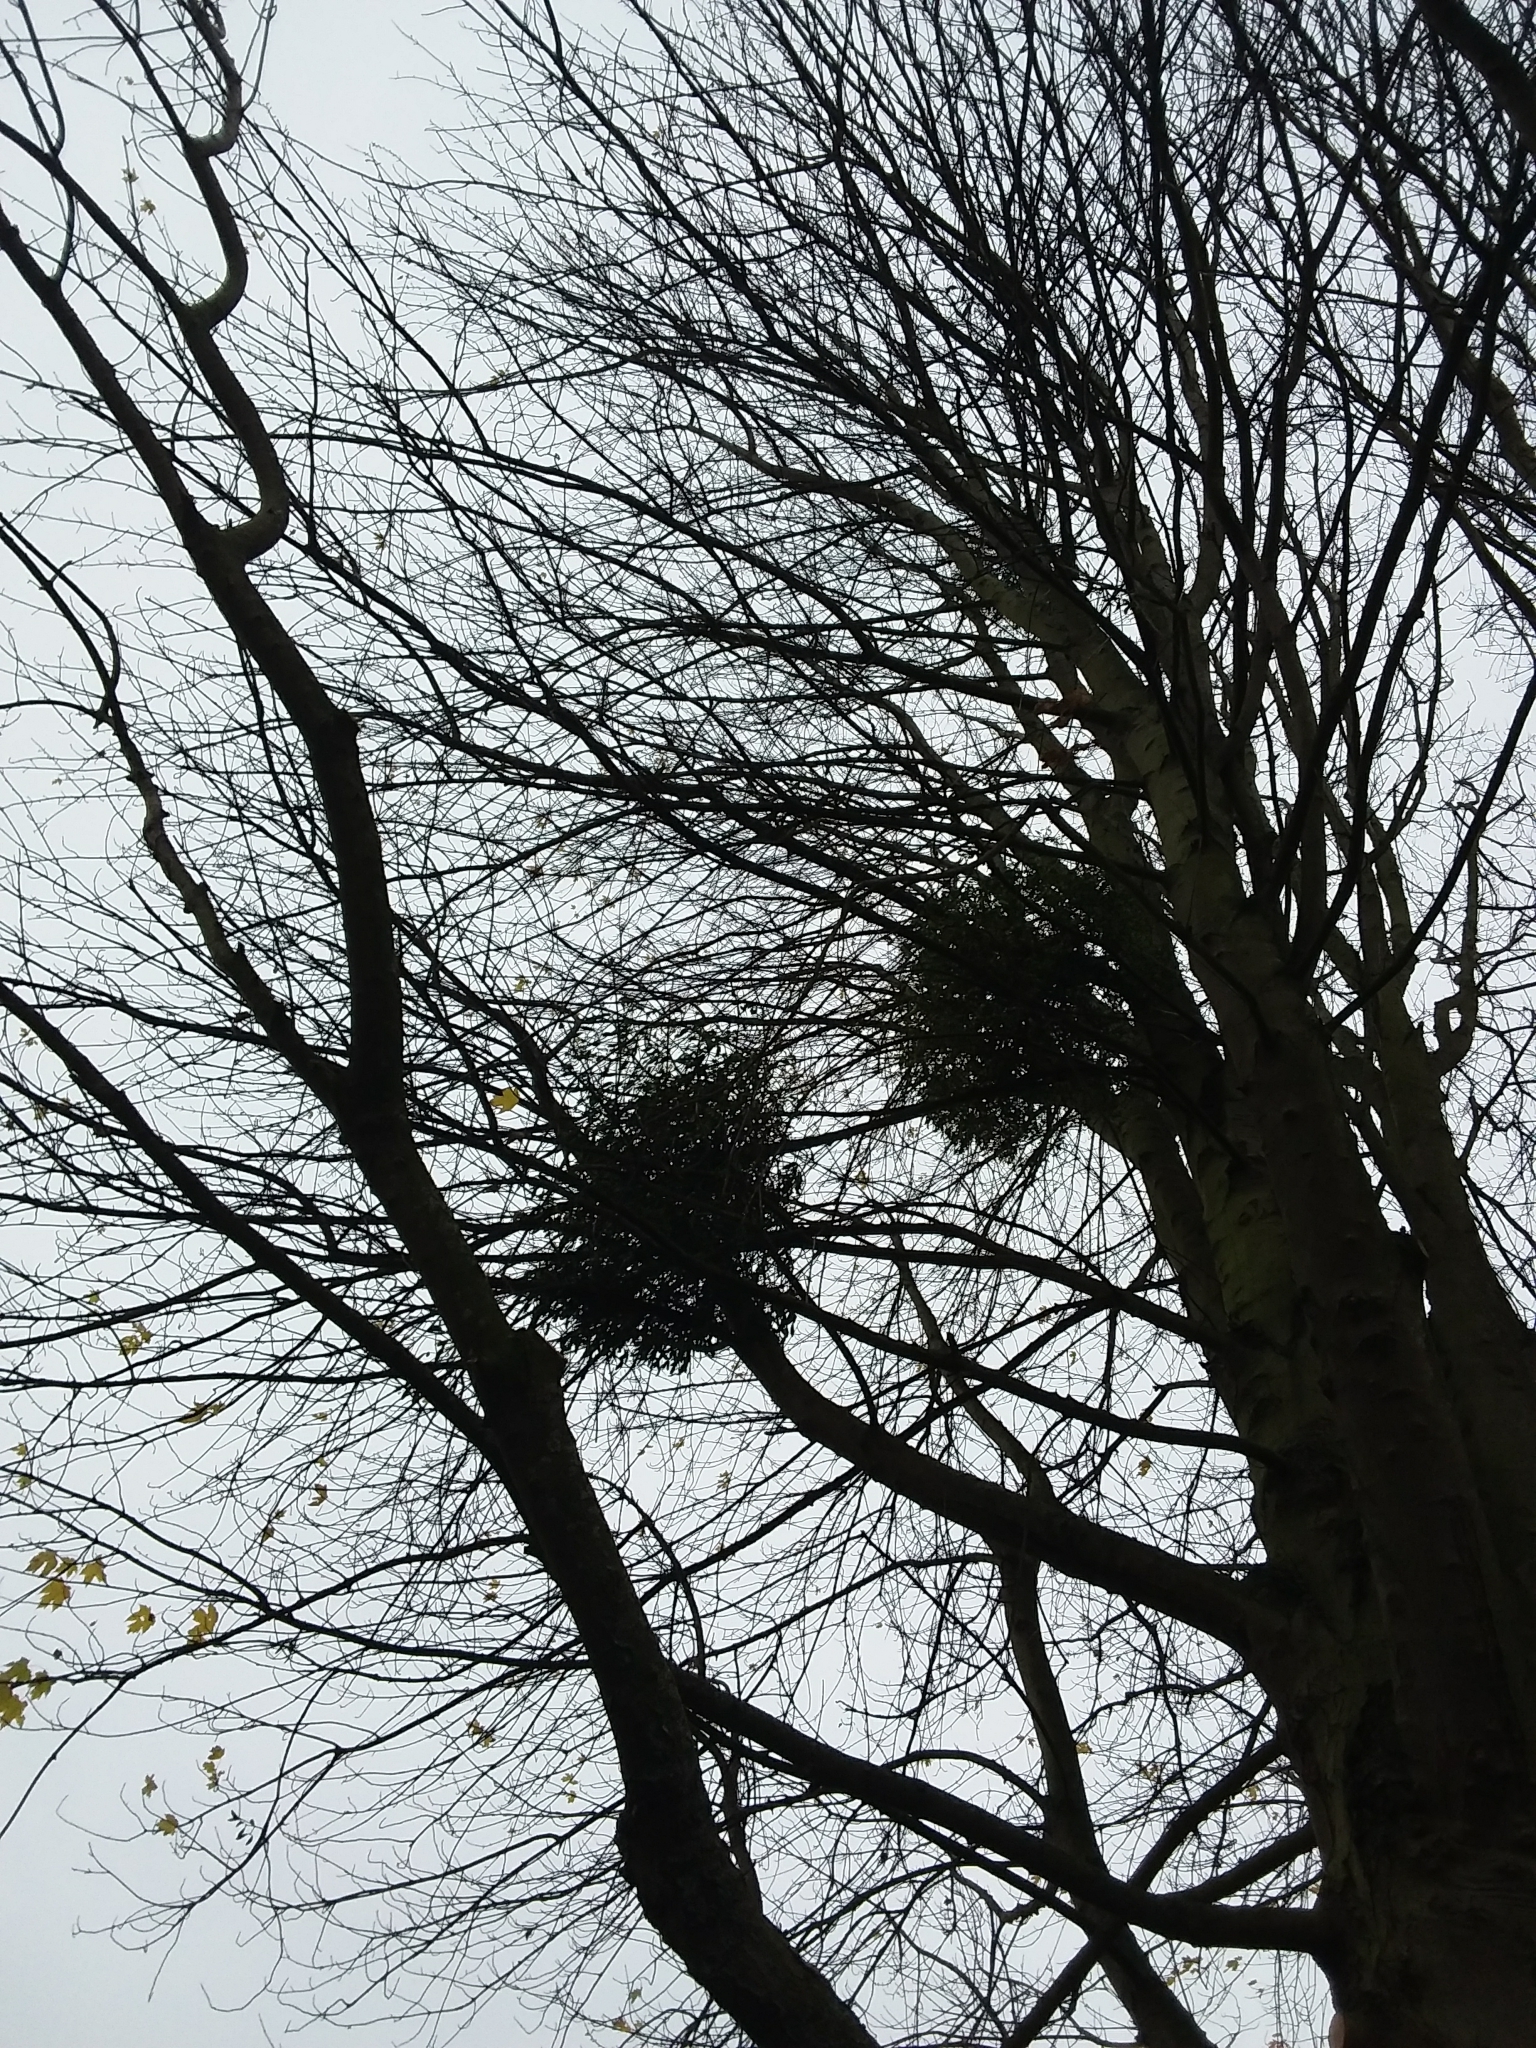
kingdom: Plantae
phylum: Tracheophyta
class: Magnoliopsida
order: Santalales
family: Viscaceae
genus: Viscum
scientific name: Viscum album
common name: Mistletoe
